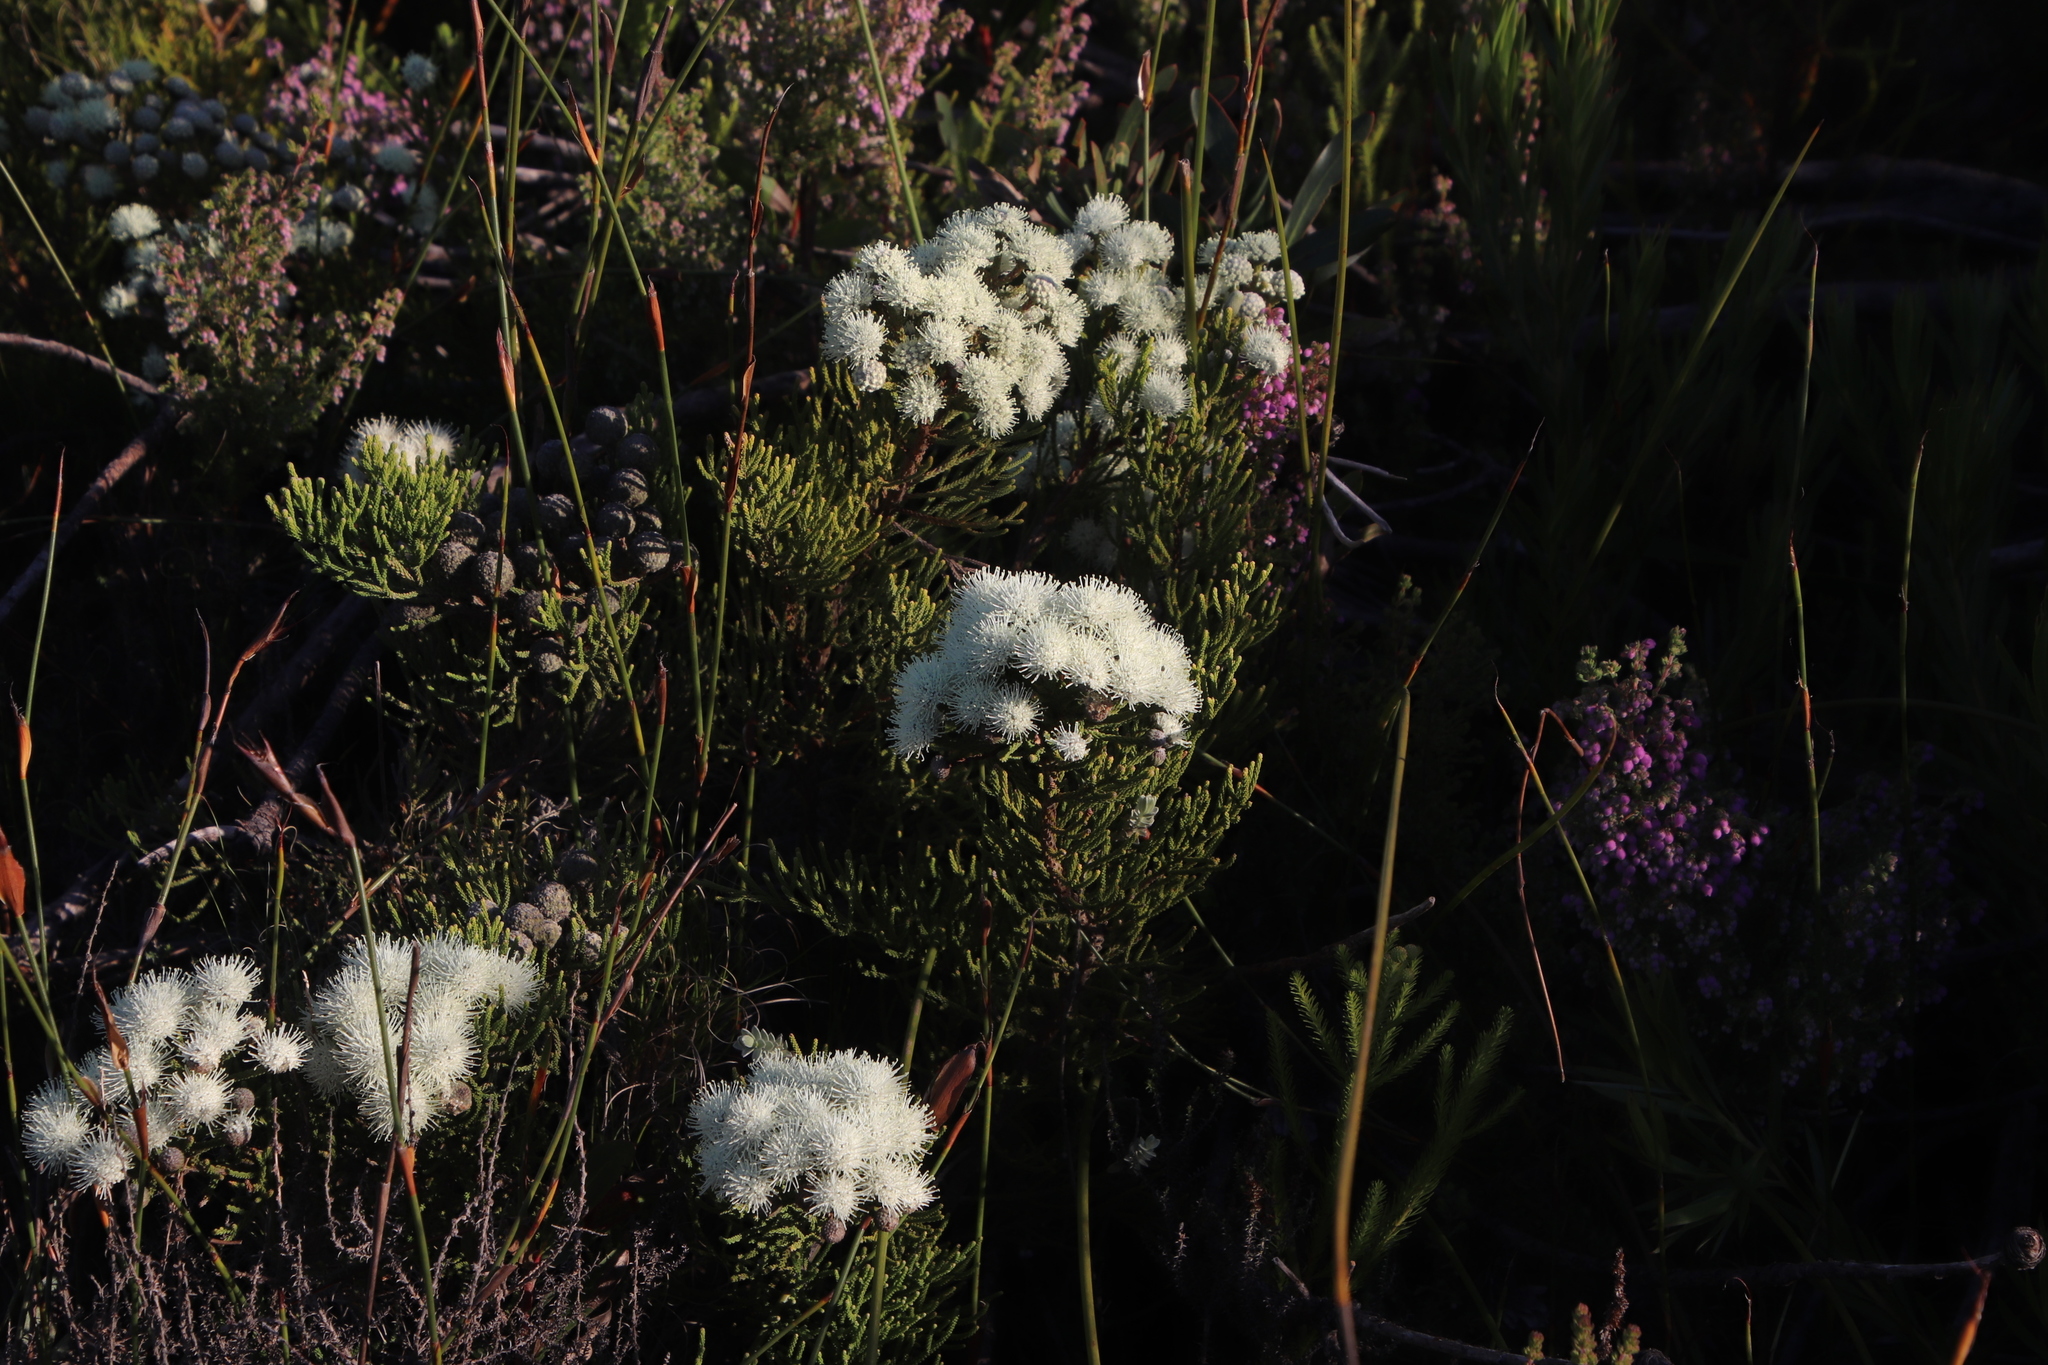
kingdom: Plantae
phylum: Tracheophyta
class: Magnoliopsida
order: Bruniales
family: Bruniaceae
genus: Brunia
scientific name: Brunia noduliflora
